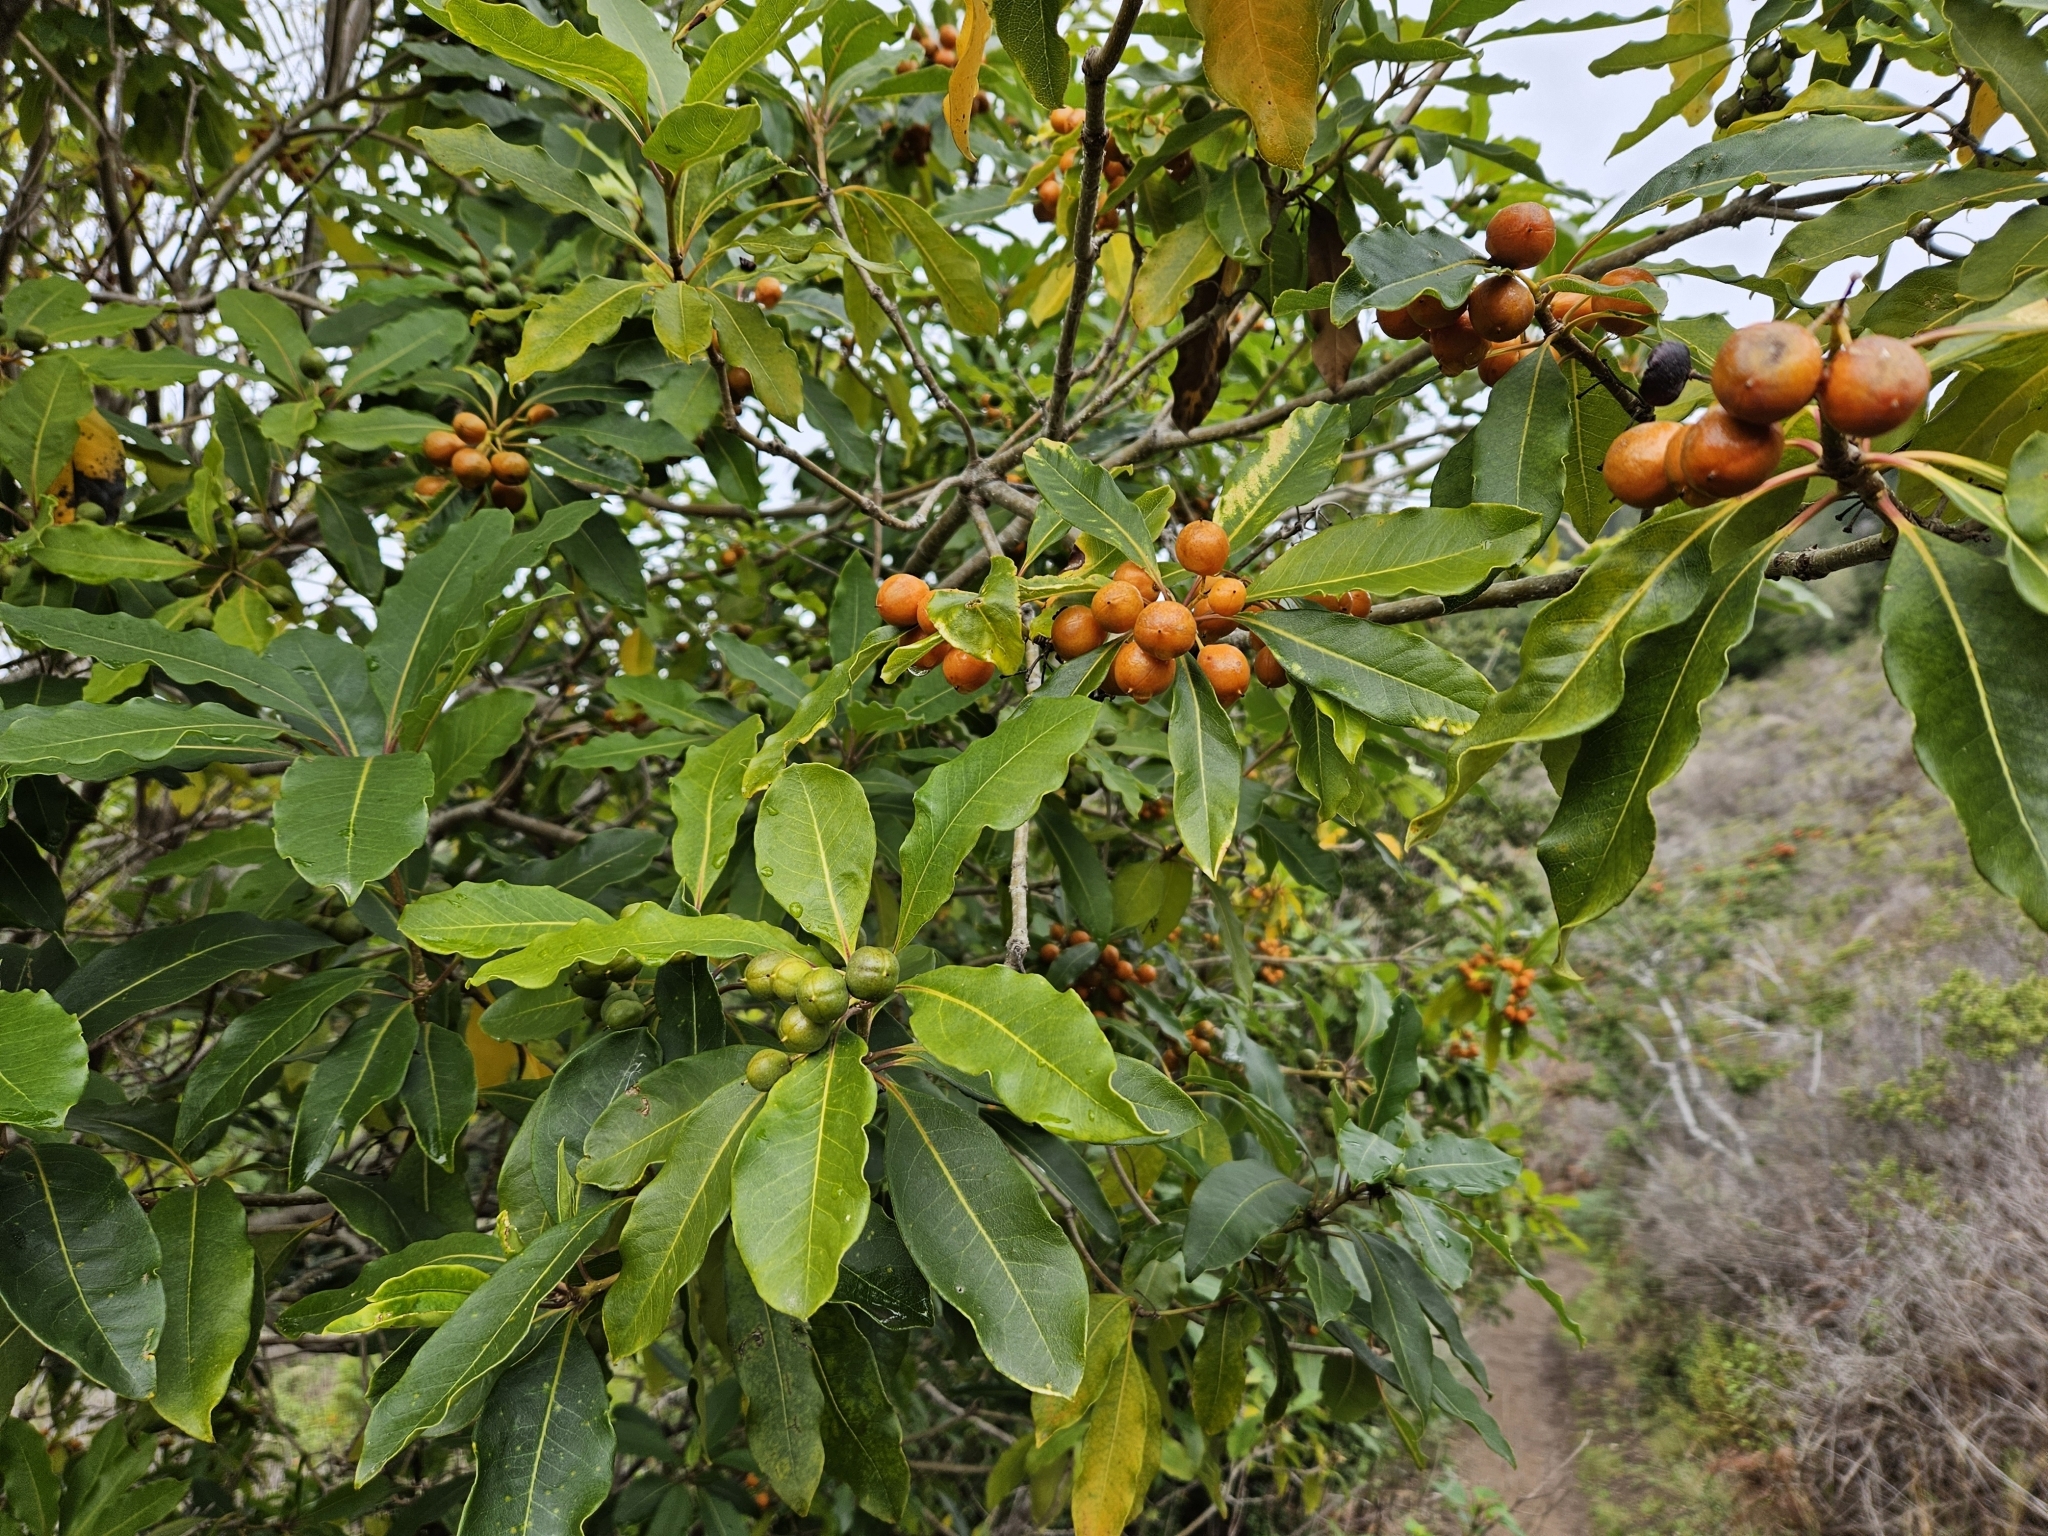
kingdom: Plantae
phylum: Tracheophyta
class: Magnoliopsida
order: Apiales
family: Pittosporaceae
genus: Pittosporum
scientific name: Pittosporum undulatum
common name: Australian cheesewood
